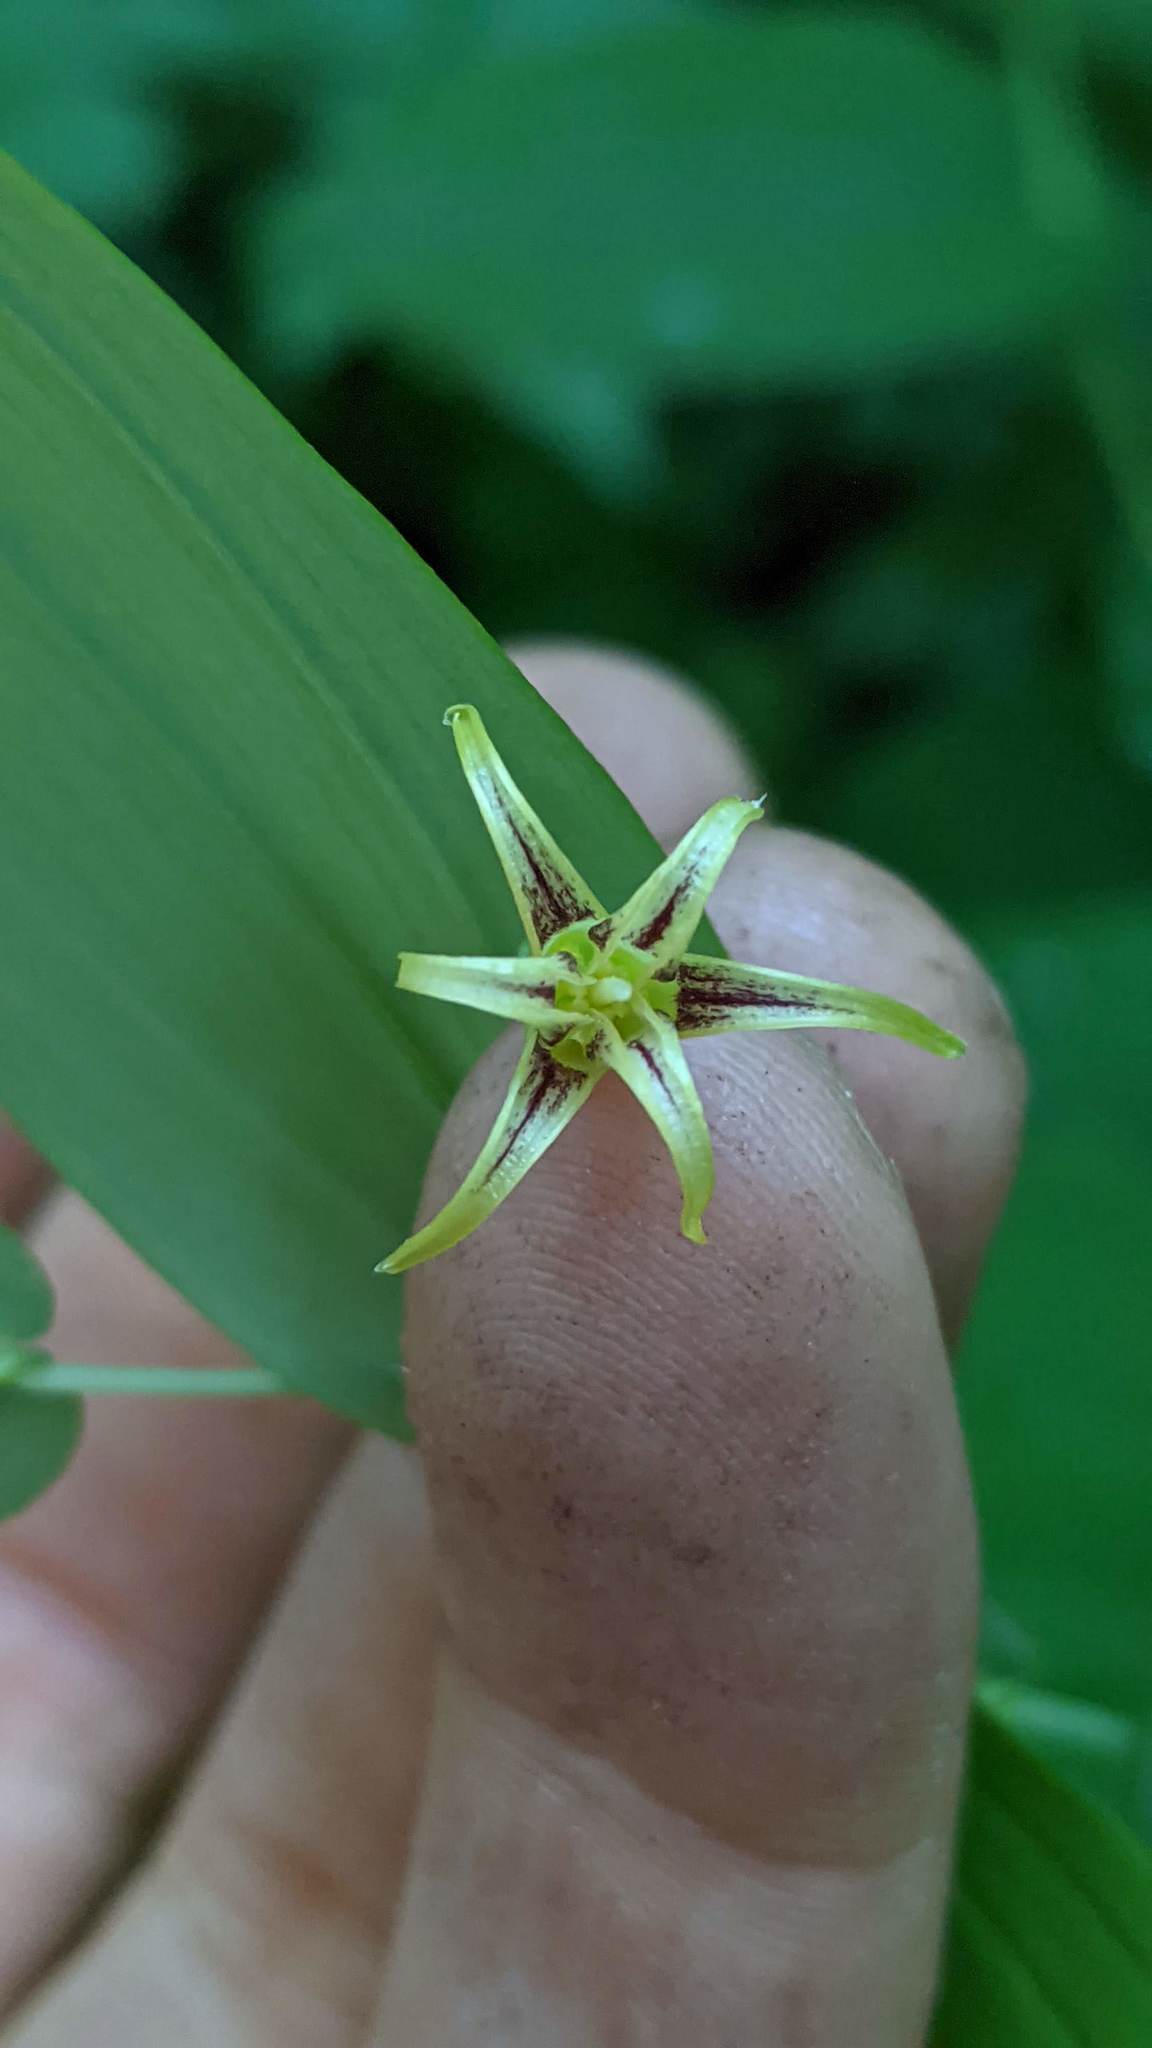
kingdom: Plantae
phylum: Tracheophyta
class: Liliopsida
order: Liliales
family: Liliaceae
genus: Streptopus
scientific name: Streptopus amplexifolius
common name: Clasp twisted stalk
